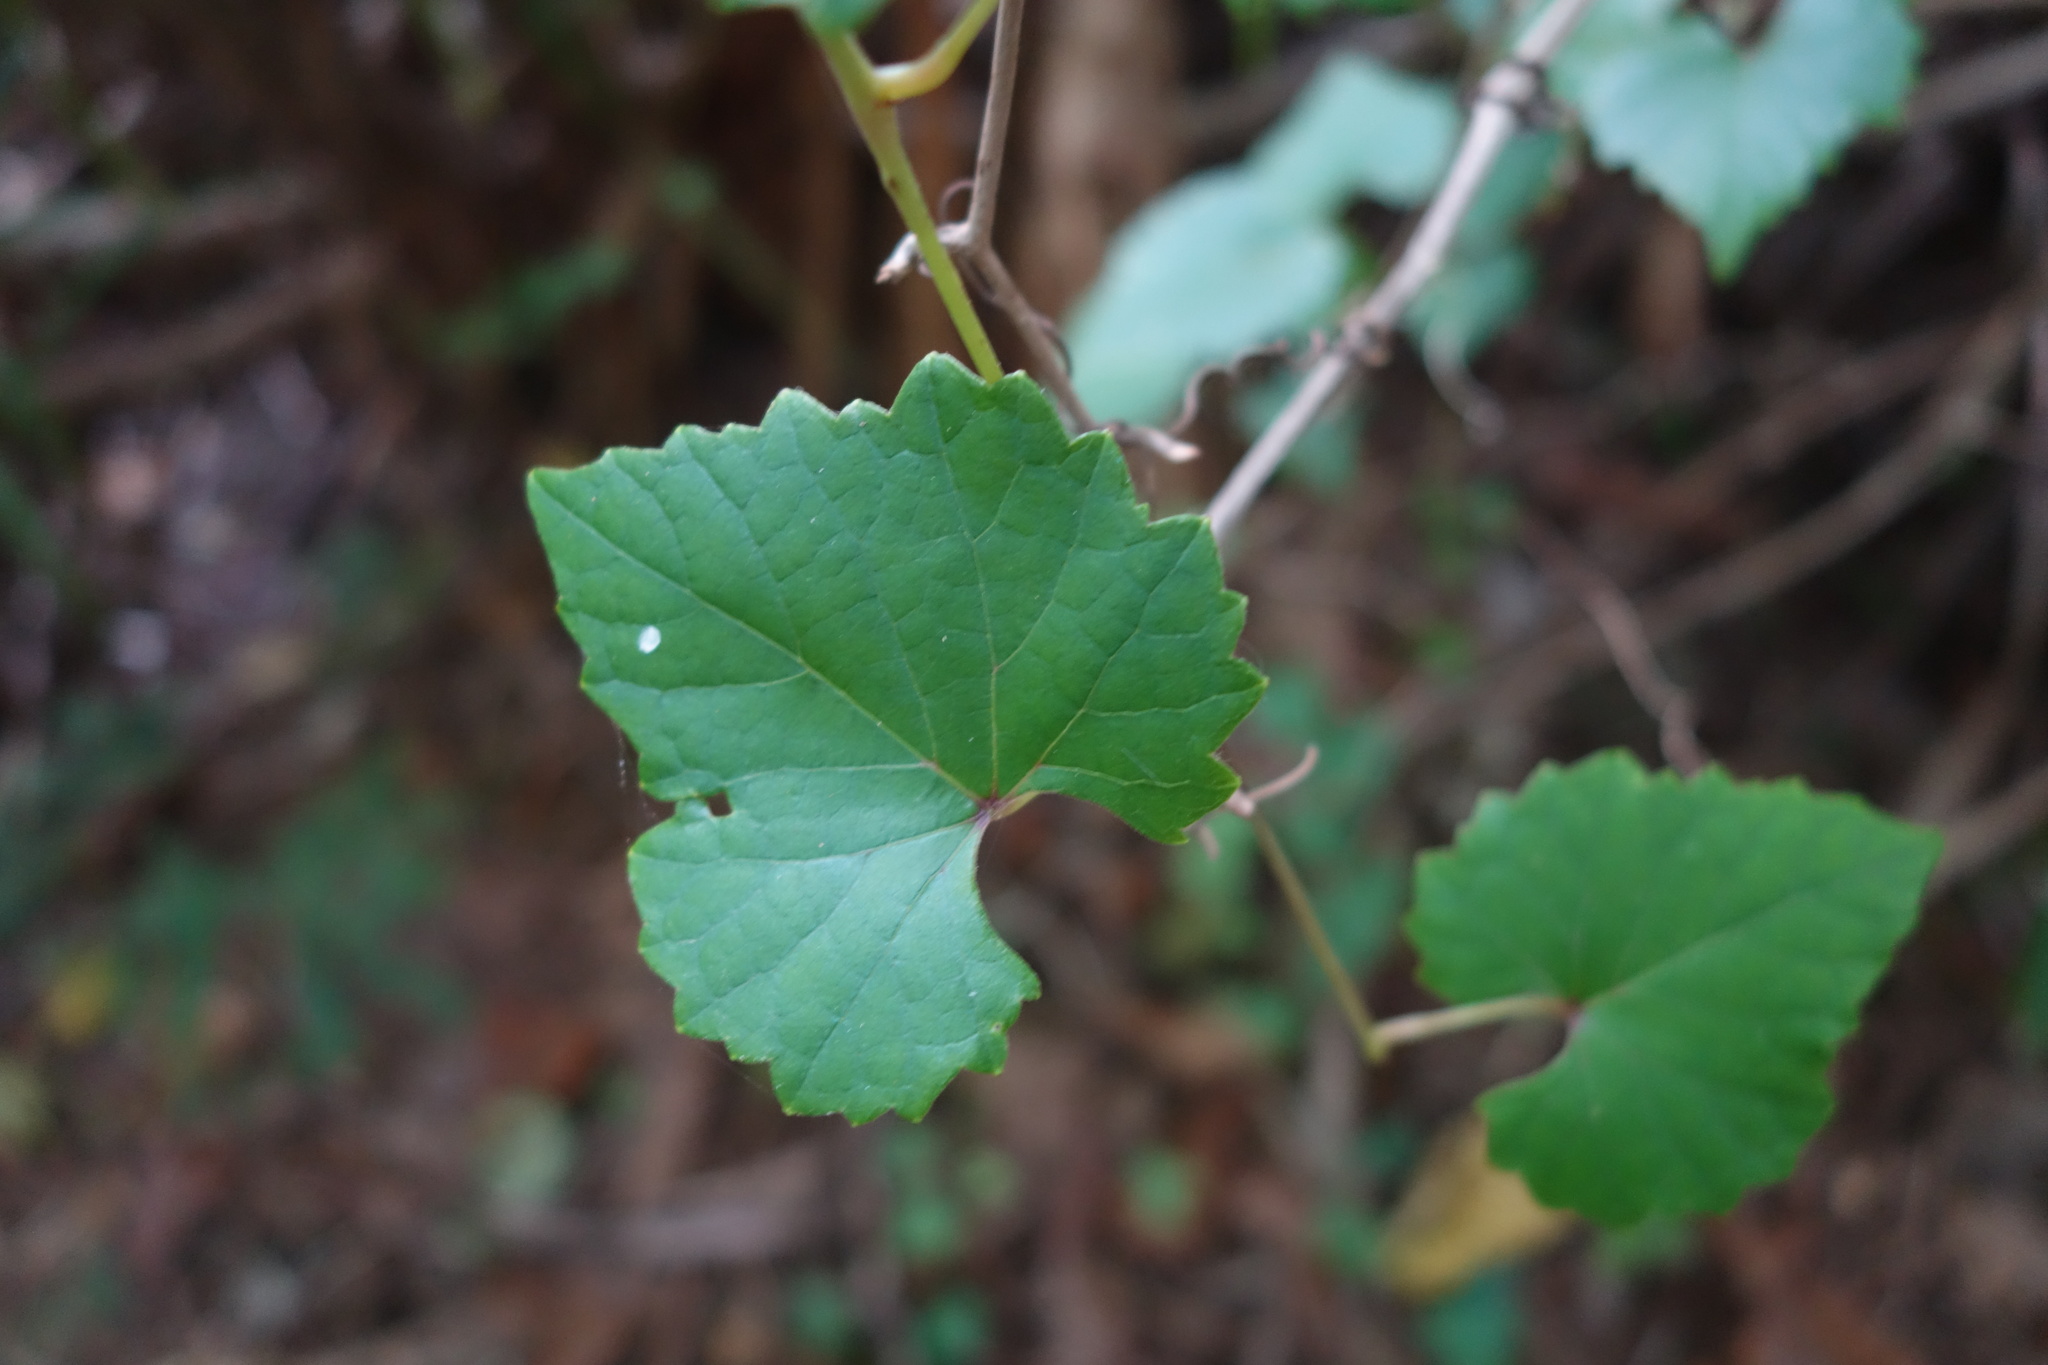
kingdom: Plantae
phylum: Tracheophyta
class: Magnoliopsida
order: Vitales
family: Vitaceae
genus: Ampelopsis
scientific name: Ampelopsis glandulosa
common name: Amur peppervine
